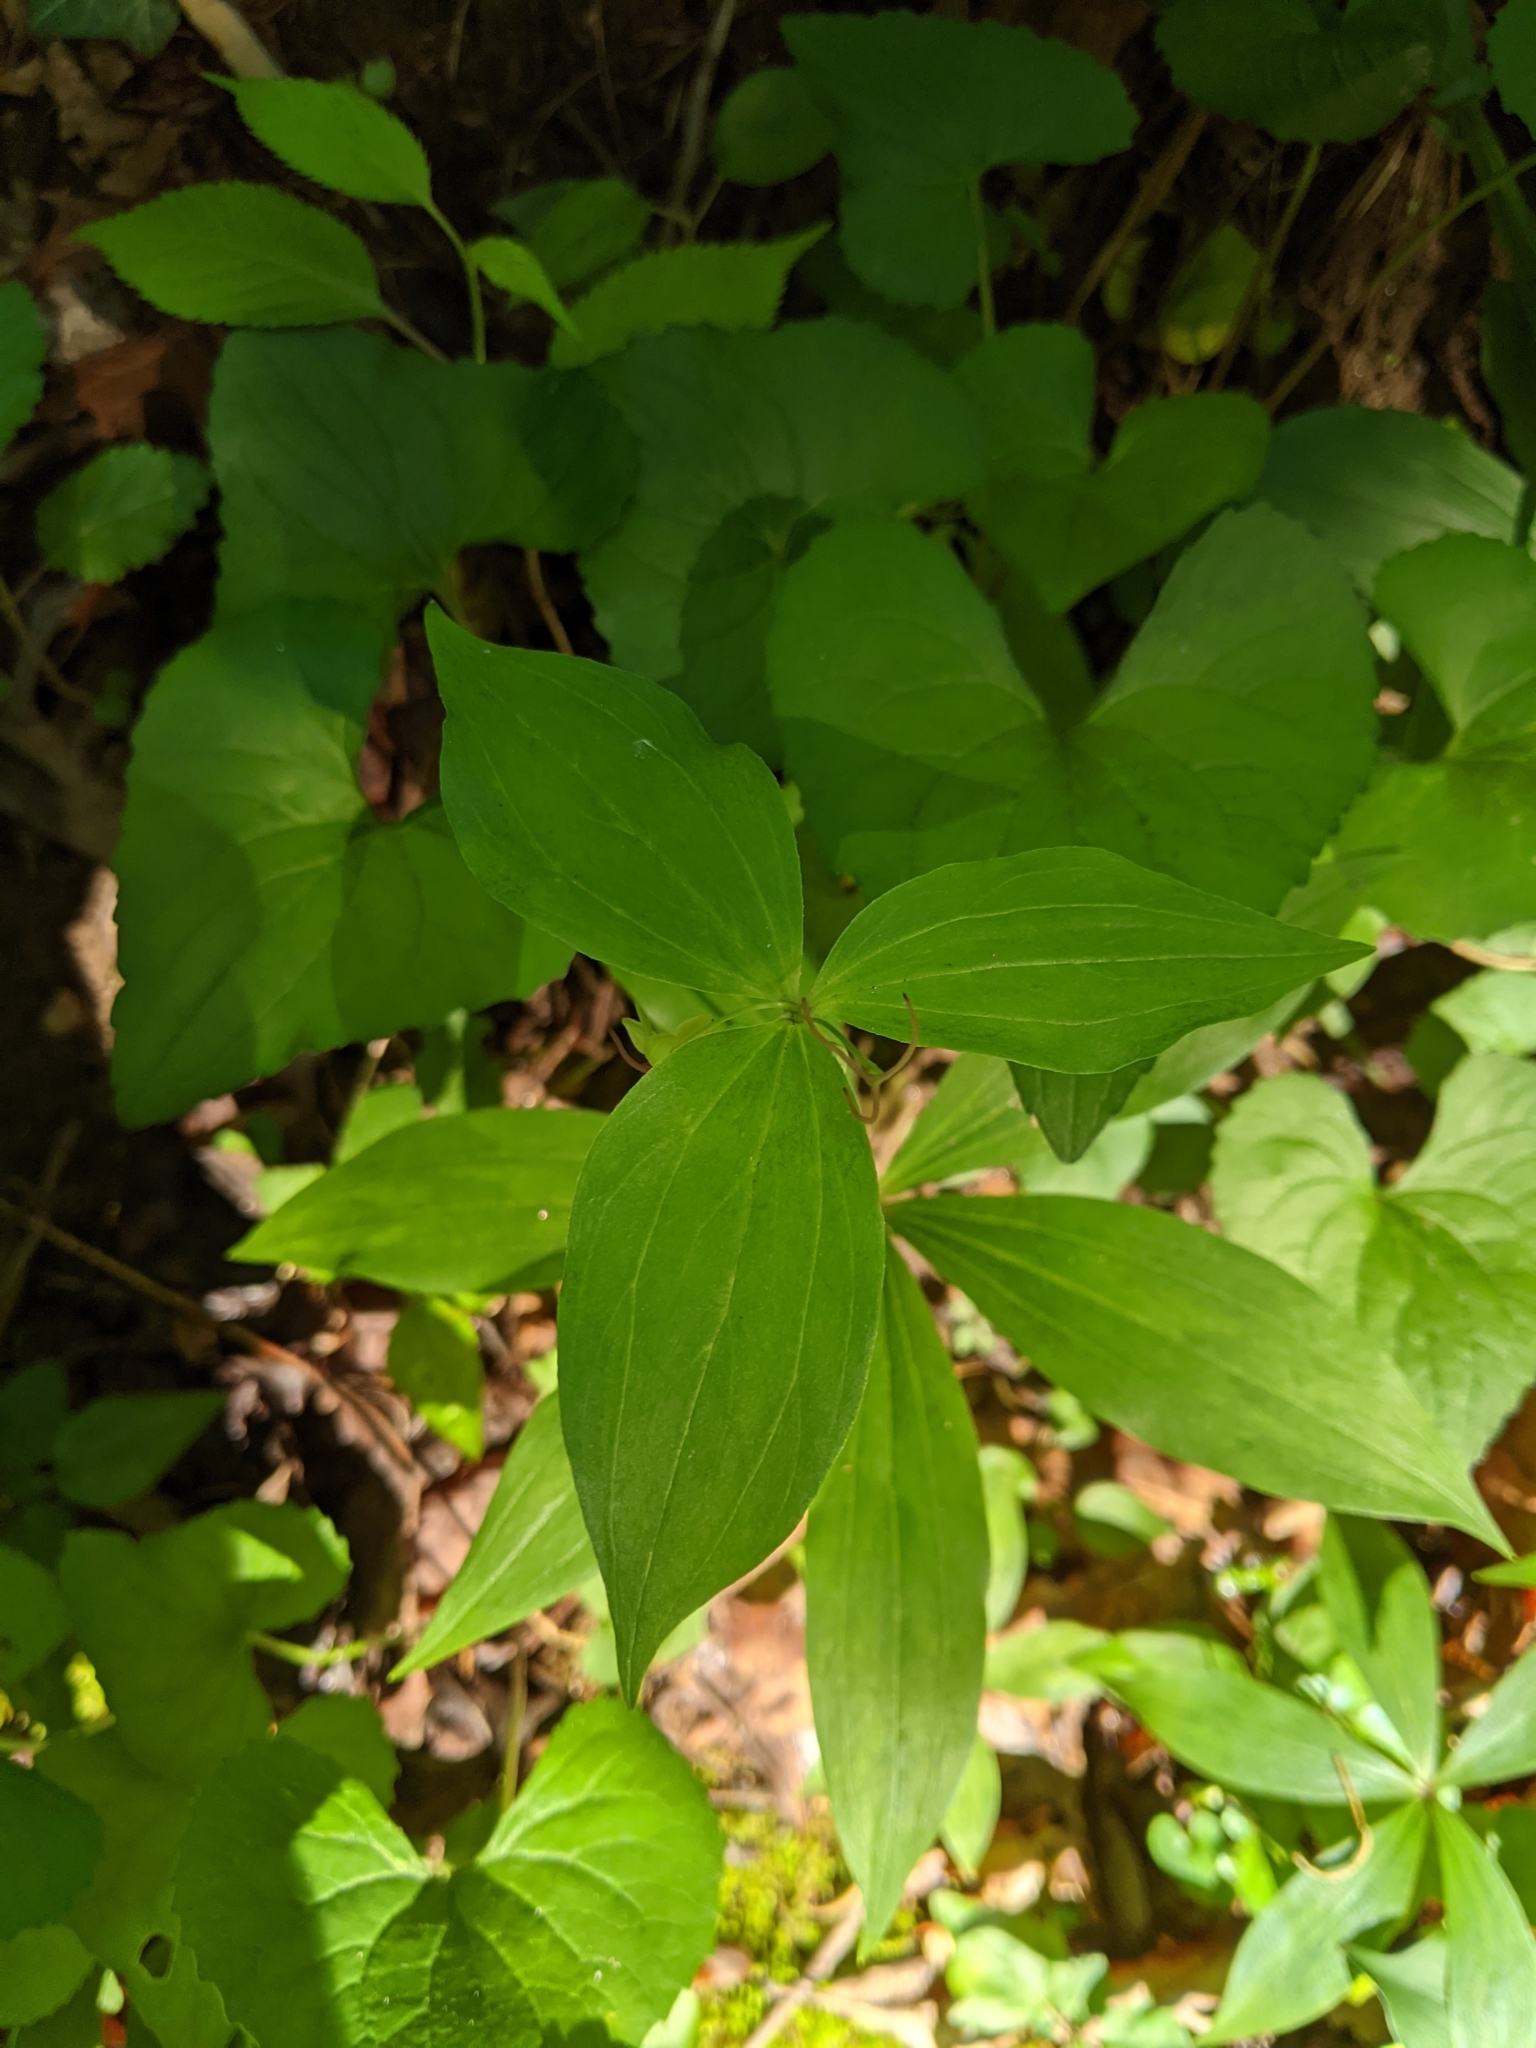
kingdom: Plantae
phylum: Tracheophyta
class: Liliopsida
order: Liliales
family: Liliaceae
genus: Medeola
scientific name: Medeola virginiana
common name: Indian cucumber-root
